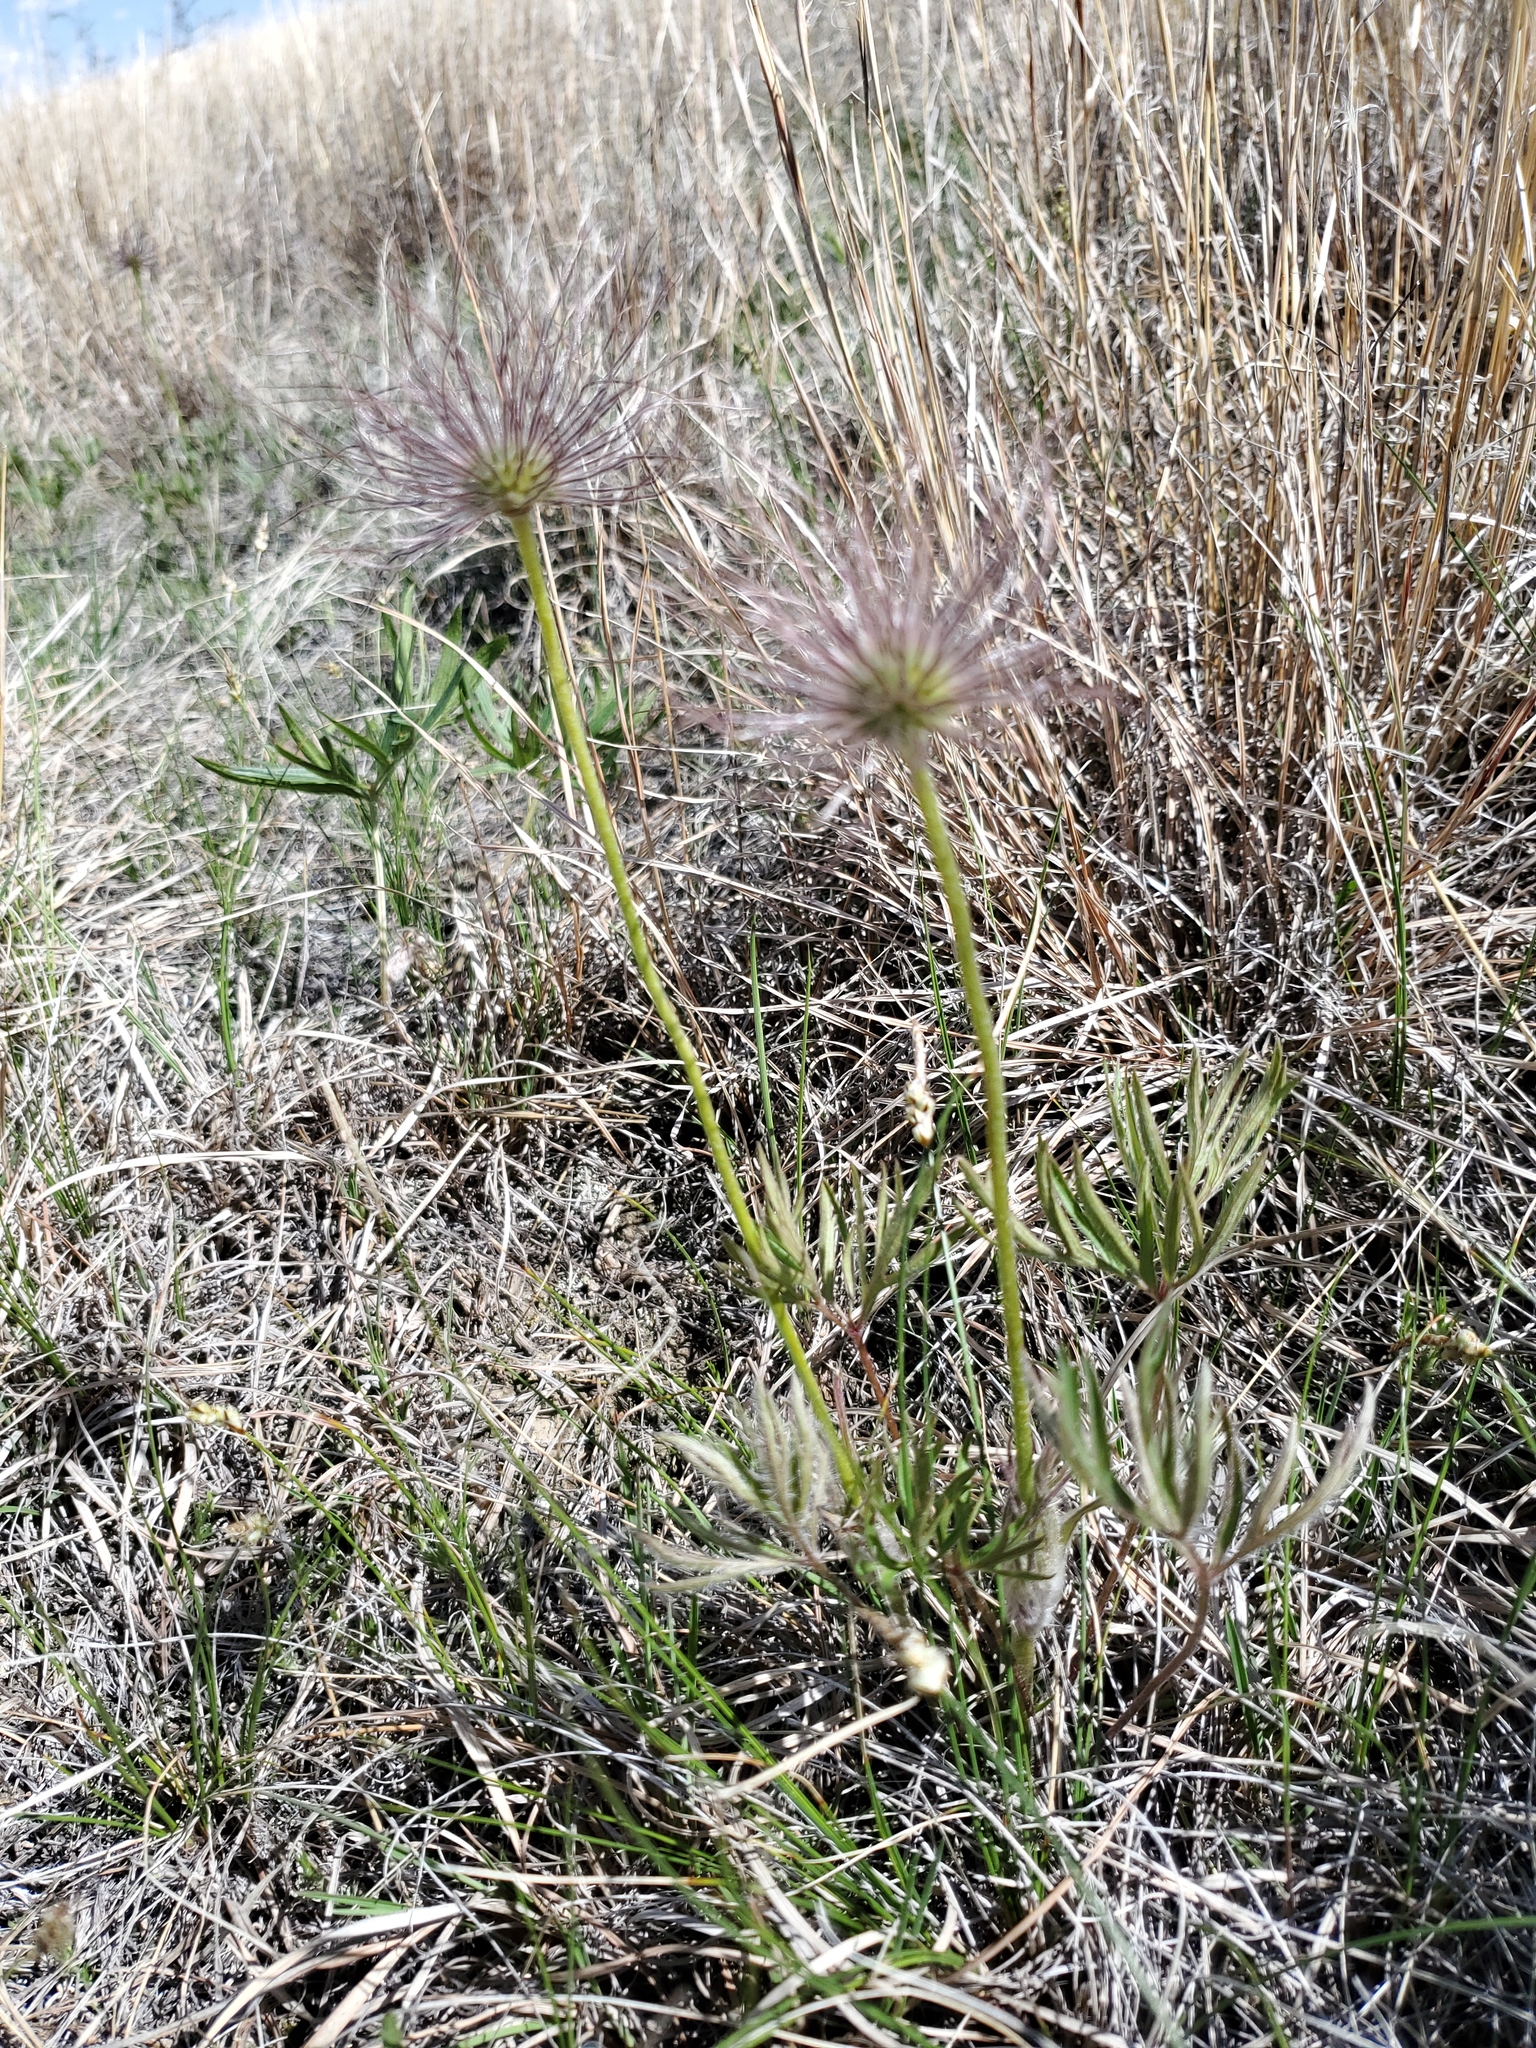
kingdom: Plantae
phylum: Tracheophyta
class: Magnoliopsida
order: Ranunculales
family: Ranunculaceae
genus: Pulsatilla
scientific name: Pulsatilla nuttalliana
